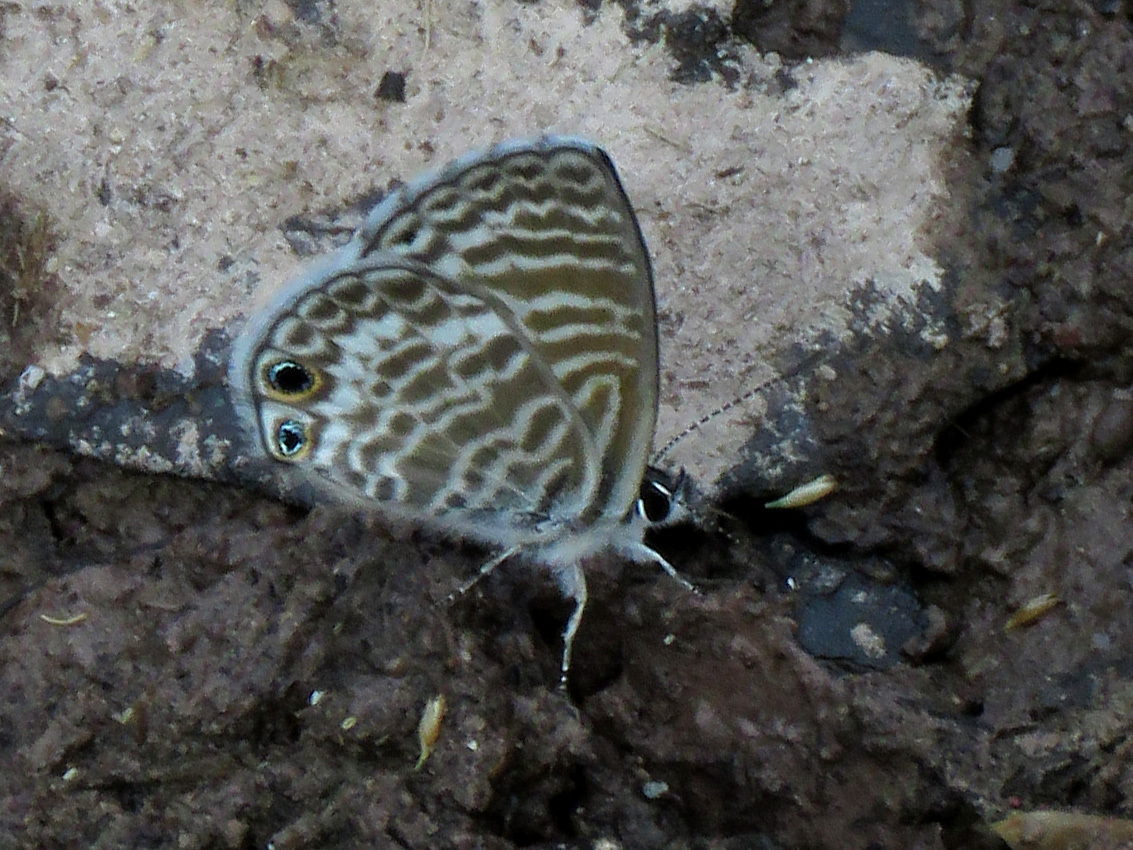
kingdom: Animalia
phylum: Arthropoda
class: Insecta
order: Lepidoptera
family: Lycaenidae
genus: Leptotes
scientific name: Leptotes marina
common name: Marine blue
